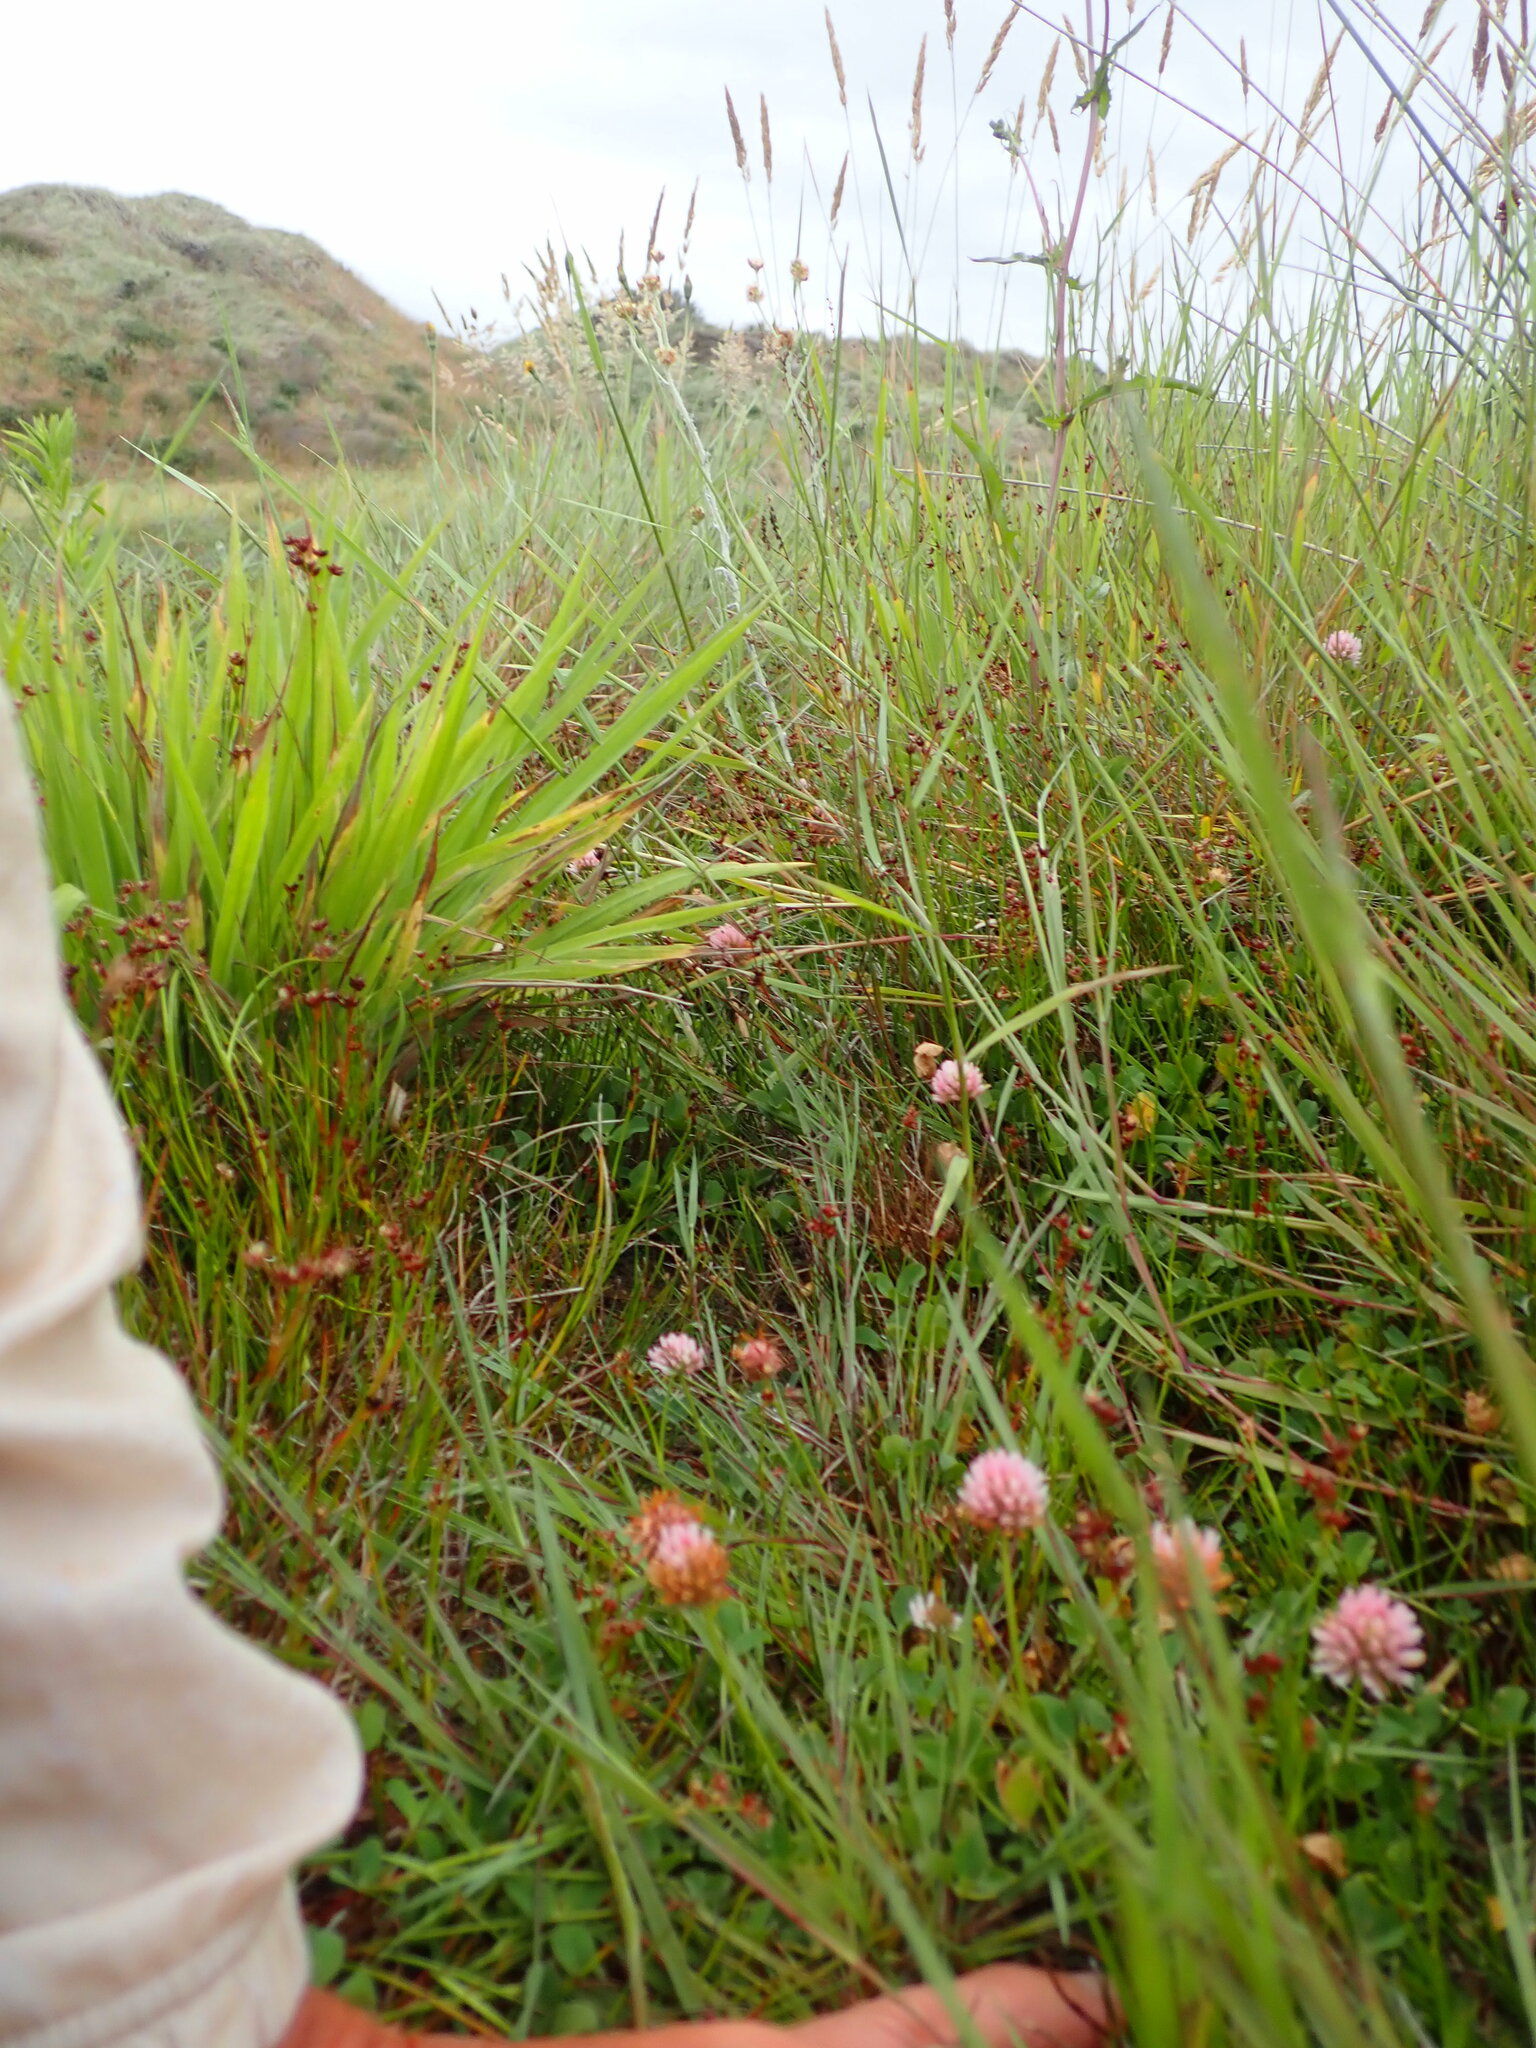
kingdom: Plantae
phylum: Tracheophyta
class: Magnoliopsida
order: Fabales
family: Fabaceae
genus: Trifolium
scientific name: Trifolium fragiferum
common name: Strawberry clover
